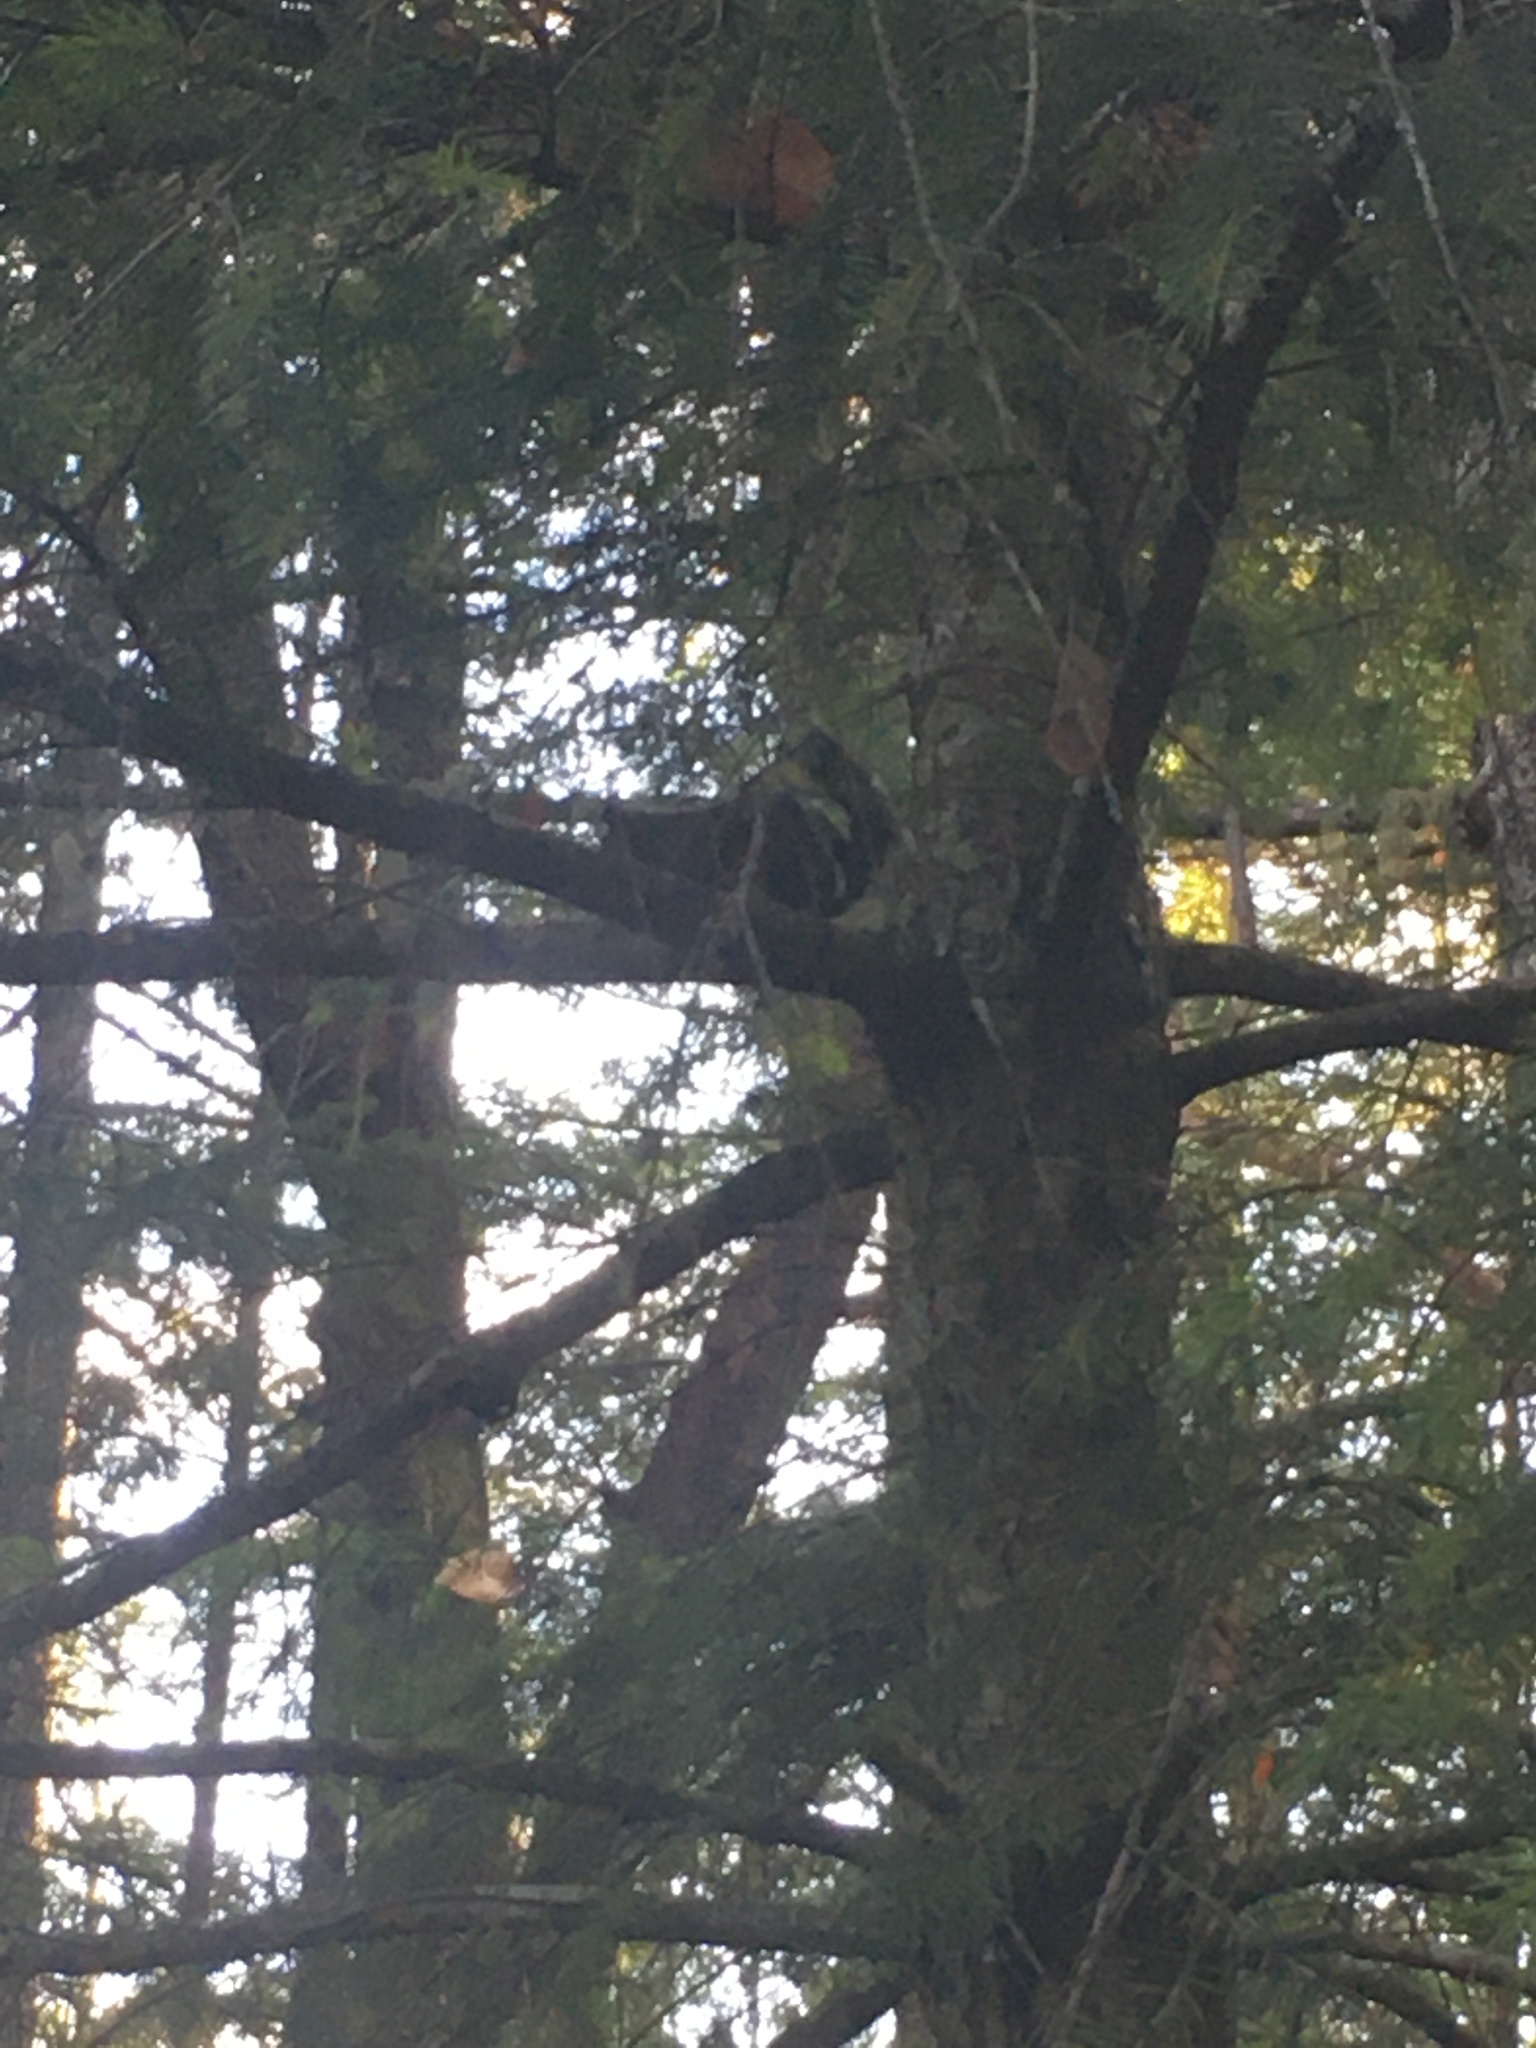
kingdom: Animalia
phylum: Chordata
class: Mammalia
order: Rodentia
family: Sciuridae
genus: Tamiasciurus
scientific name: Tamiasciurus hudsonicus
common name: Red squirrel
